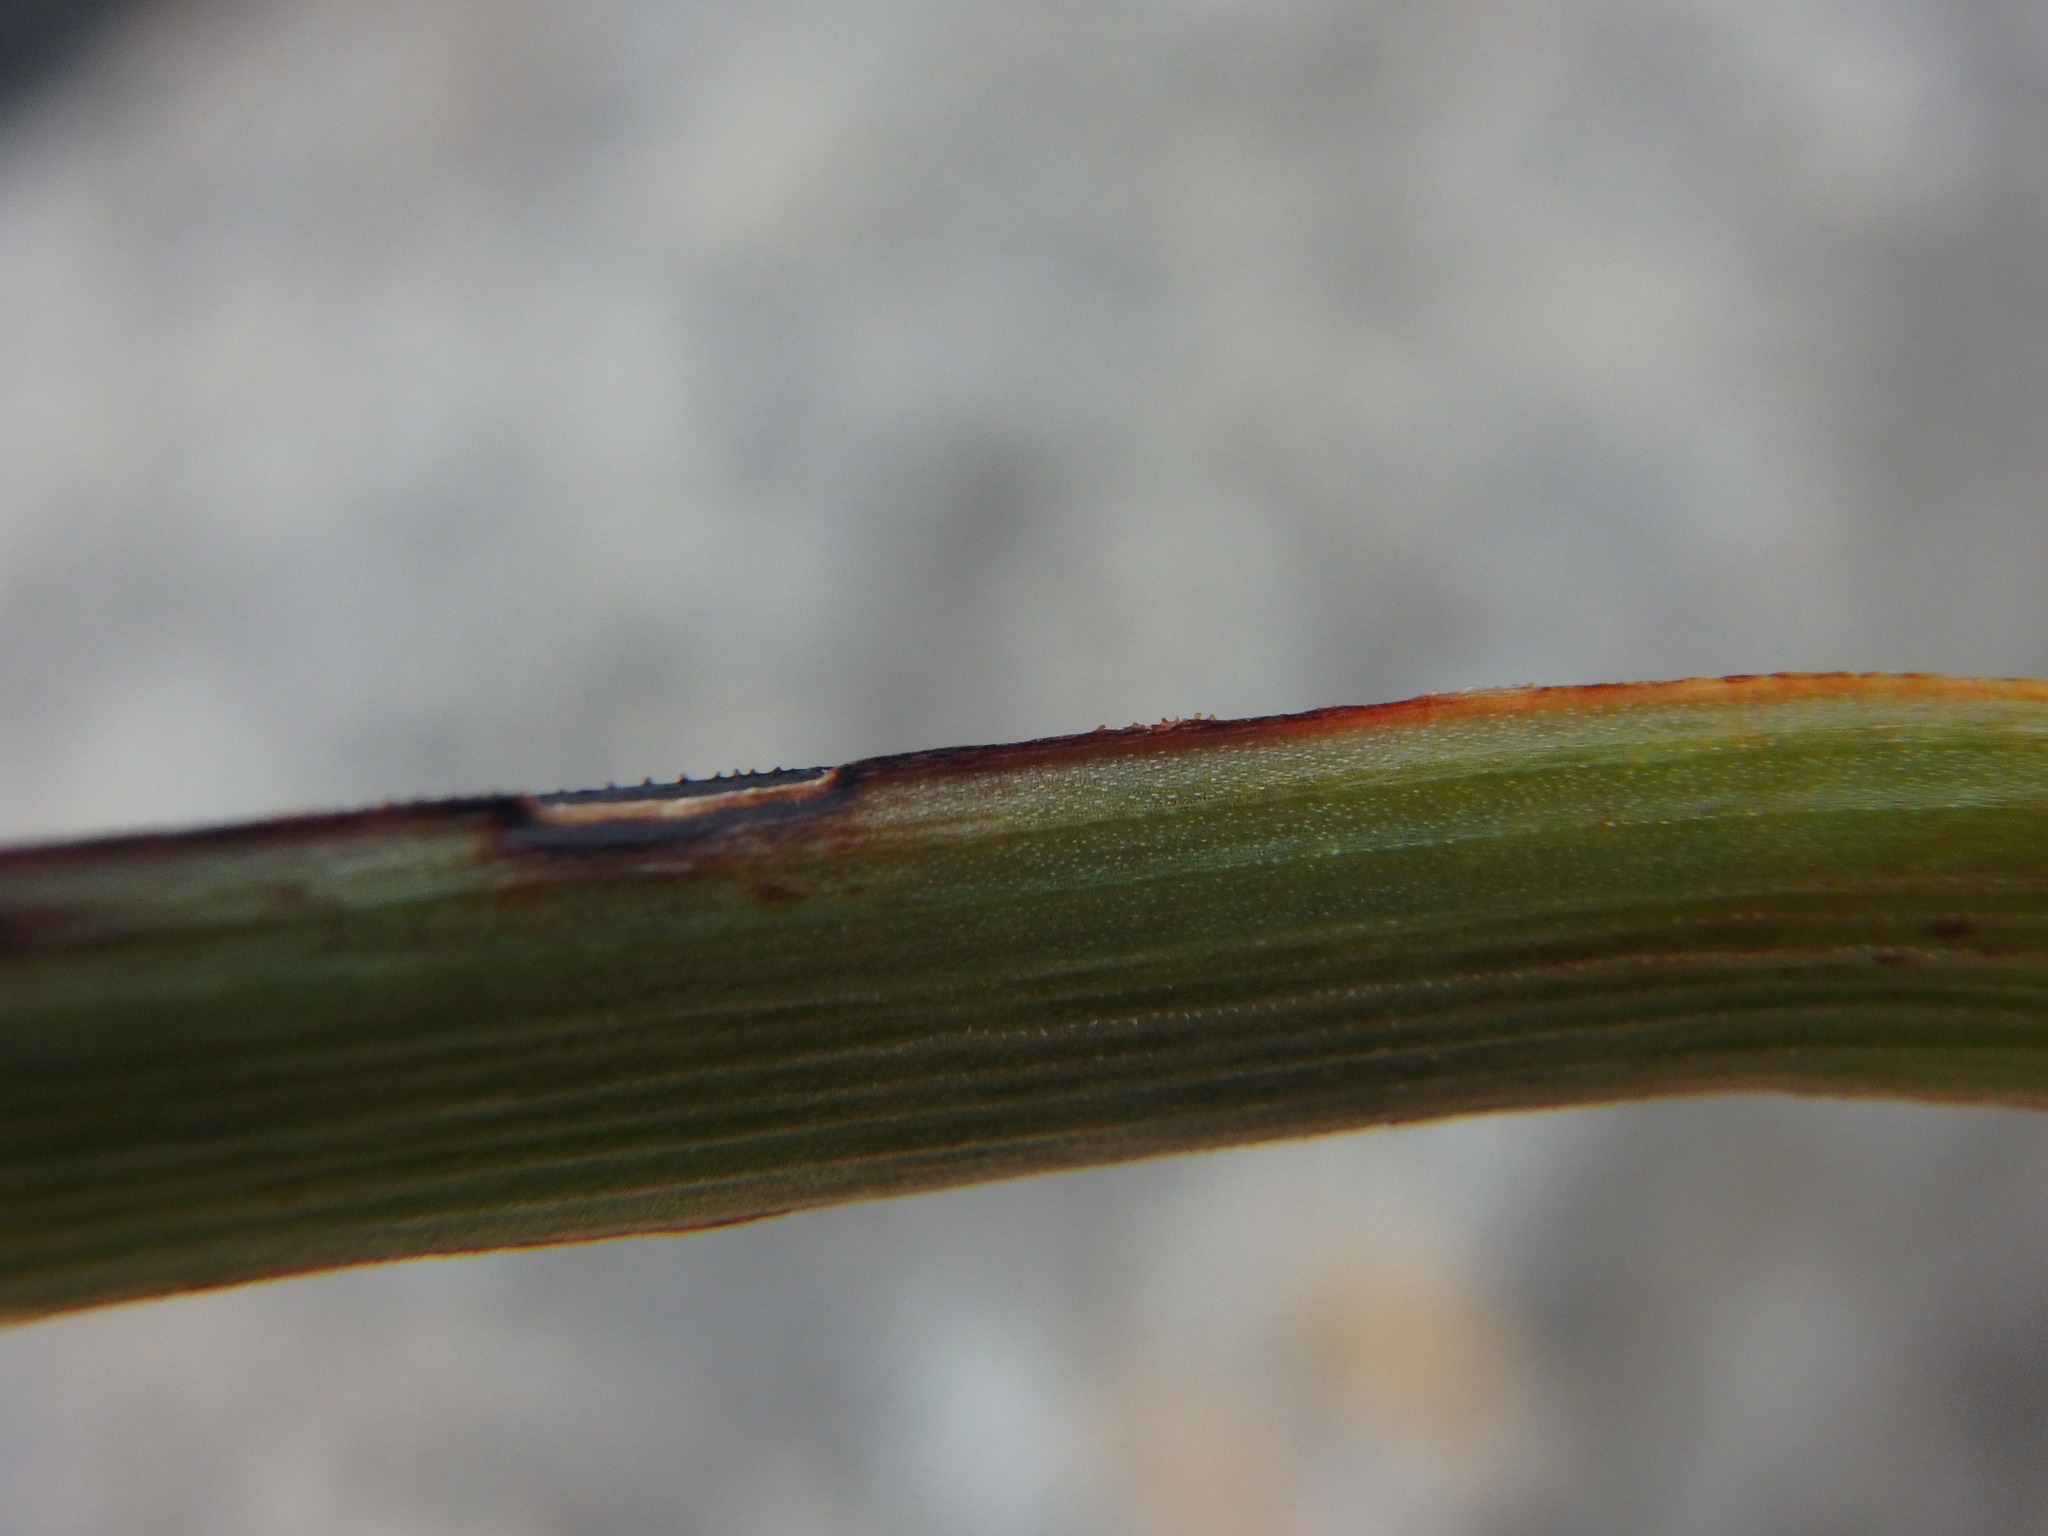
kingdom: Plantae
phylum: Tracheophyta
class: Liliopsida
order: Asparagales
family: Asphodelaceae
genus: Asphodelus
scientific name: Asphodelus fistulosus
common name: Onionweed
